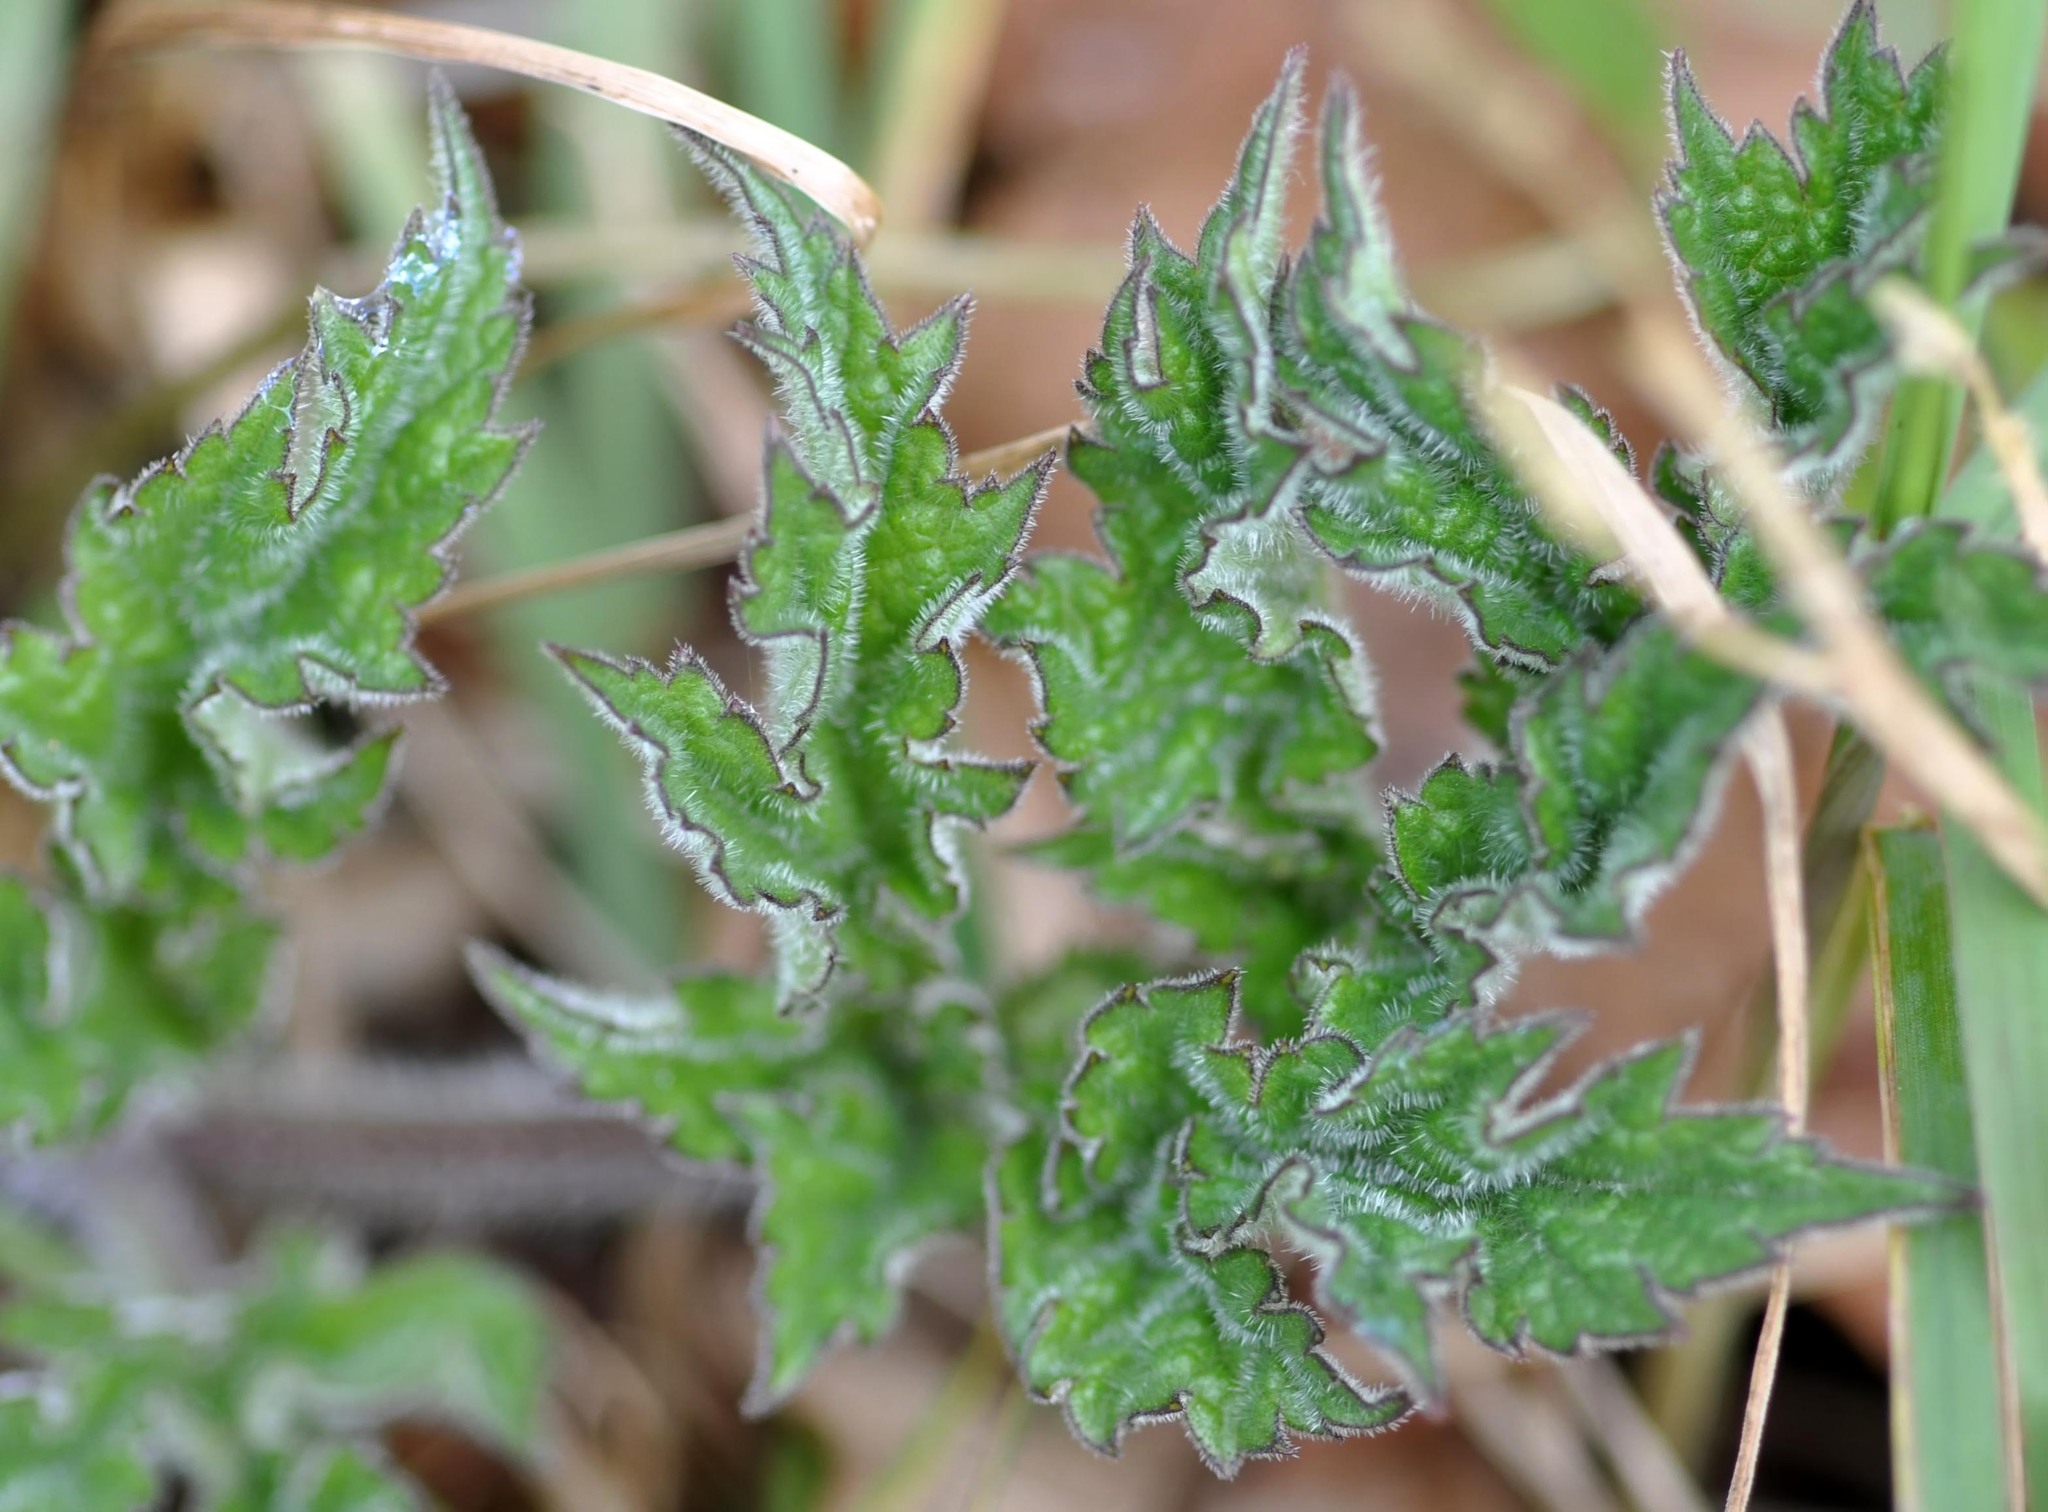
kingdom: Plantae
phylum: Tracheophyta
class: Magnoliopsida
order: Apiales
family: Apiaceae
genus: Heracleum
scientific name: Heracleum sphondylium
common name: Hogweed
